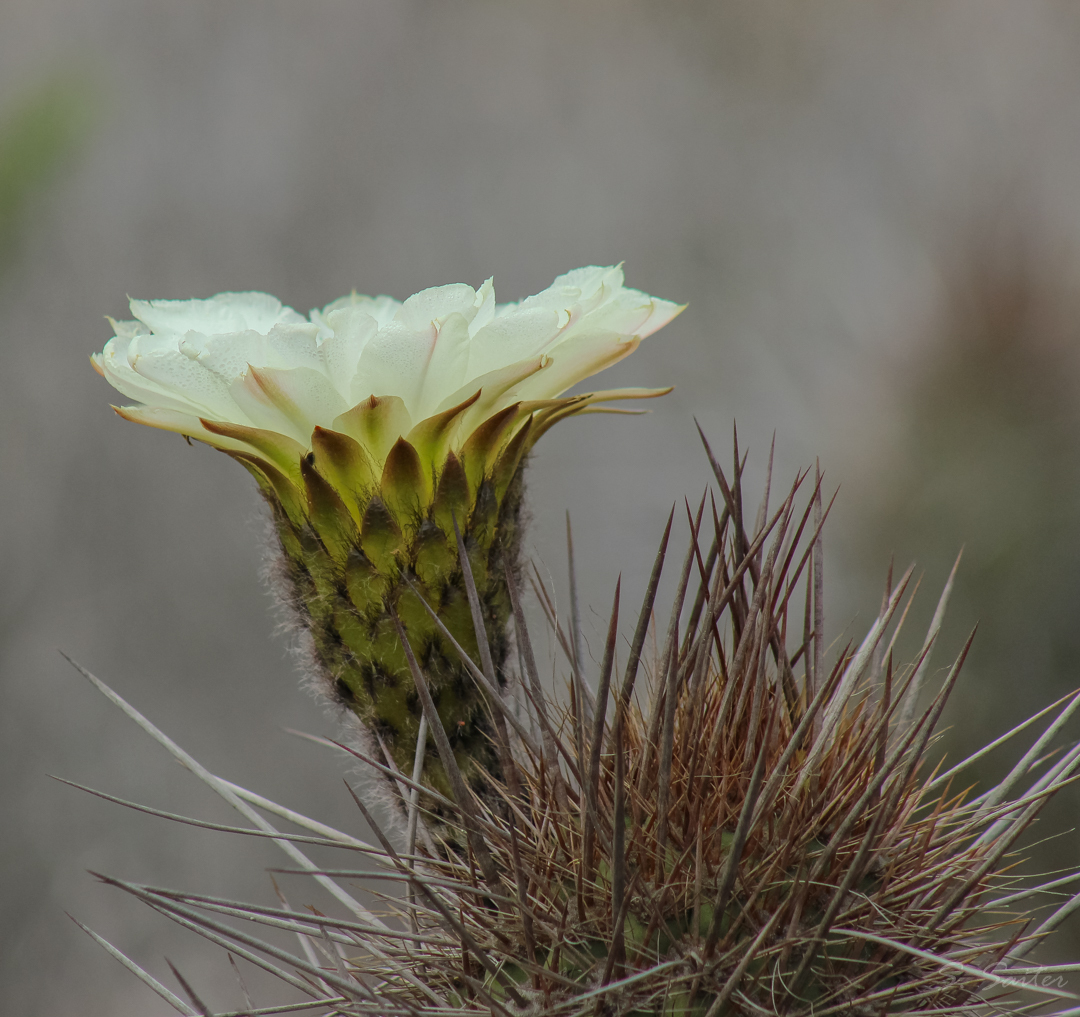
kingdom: Plantae
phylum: Tracheophyta
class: Magnoliopsida
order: Caryophyllales
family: Cactaceae
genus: Leucostele
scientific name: Leucostele chiloensis
